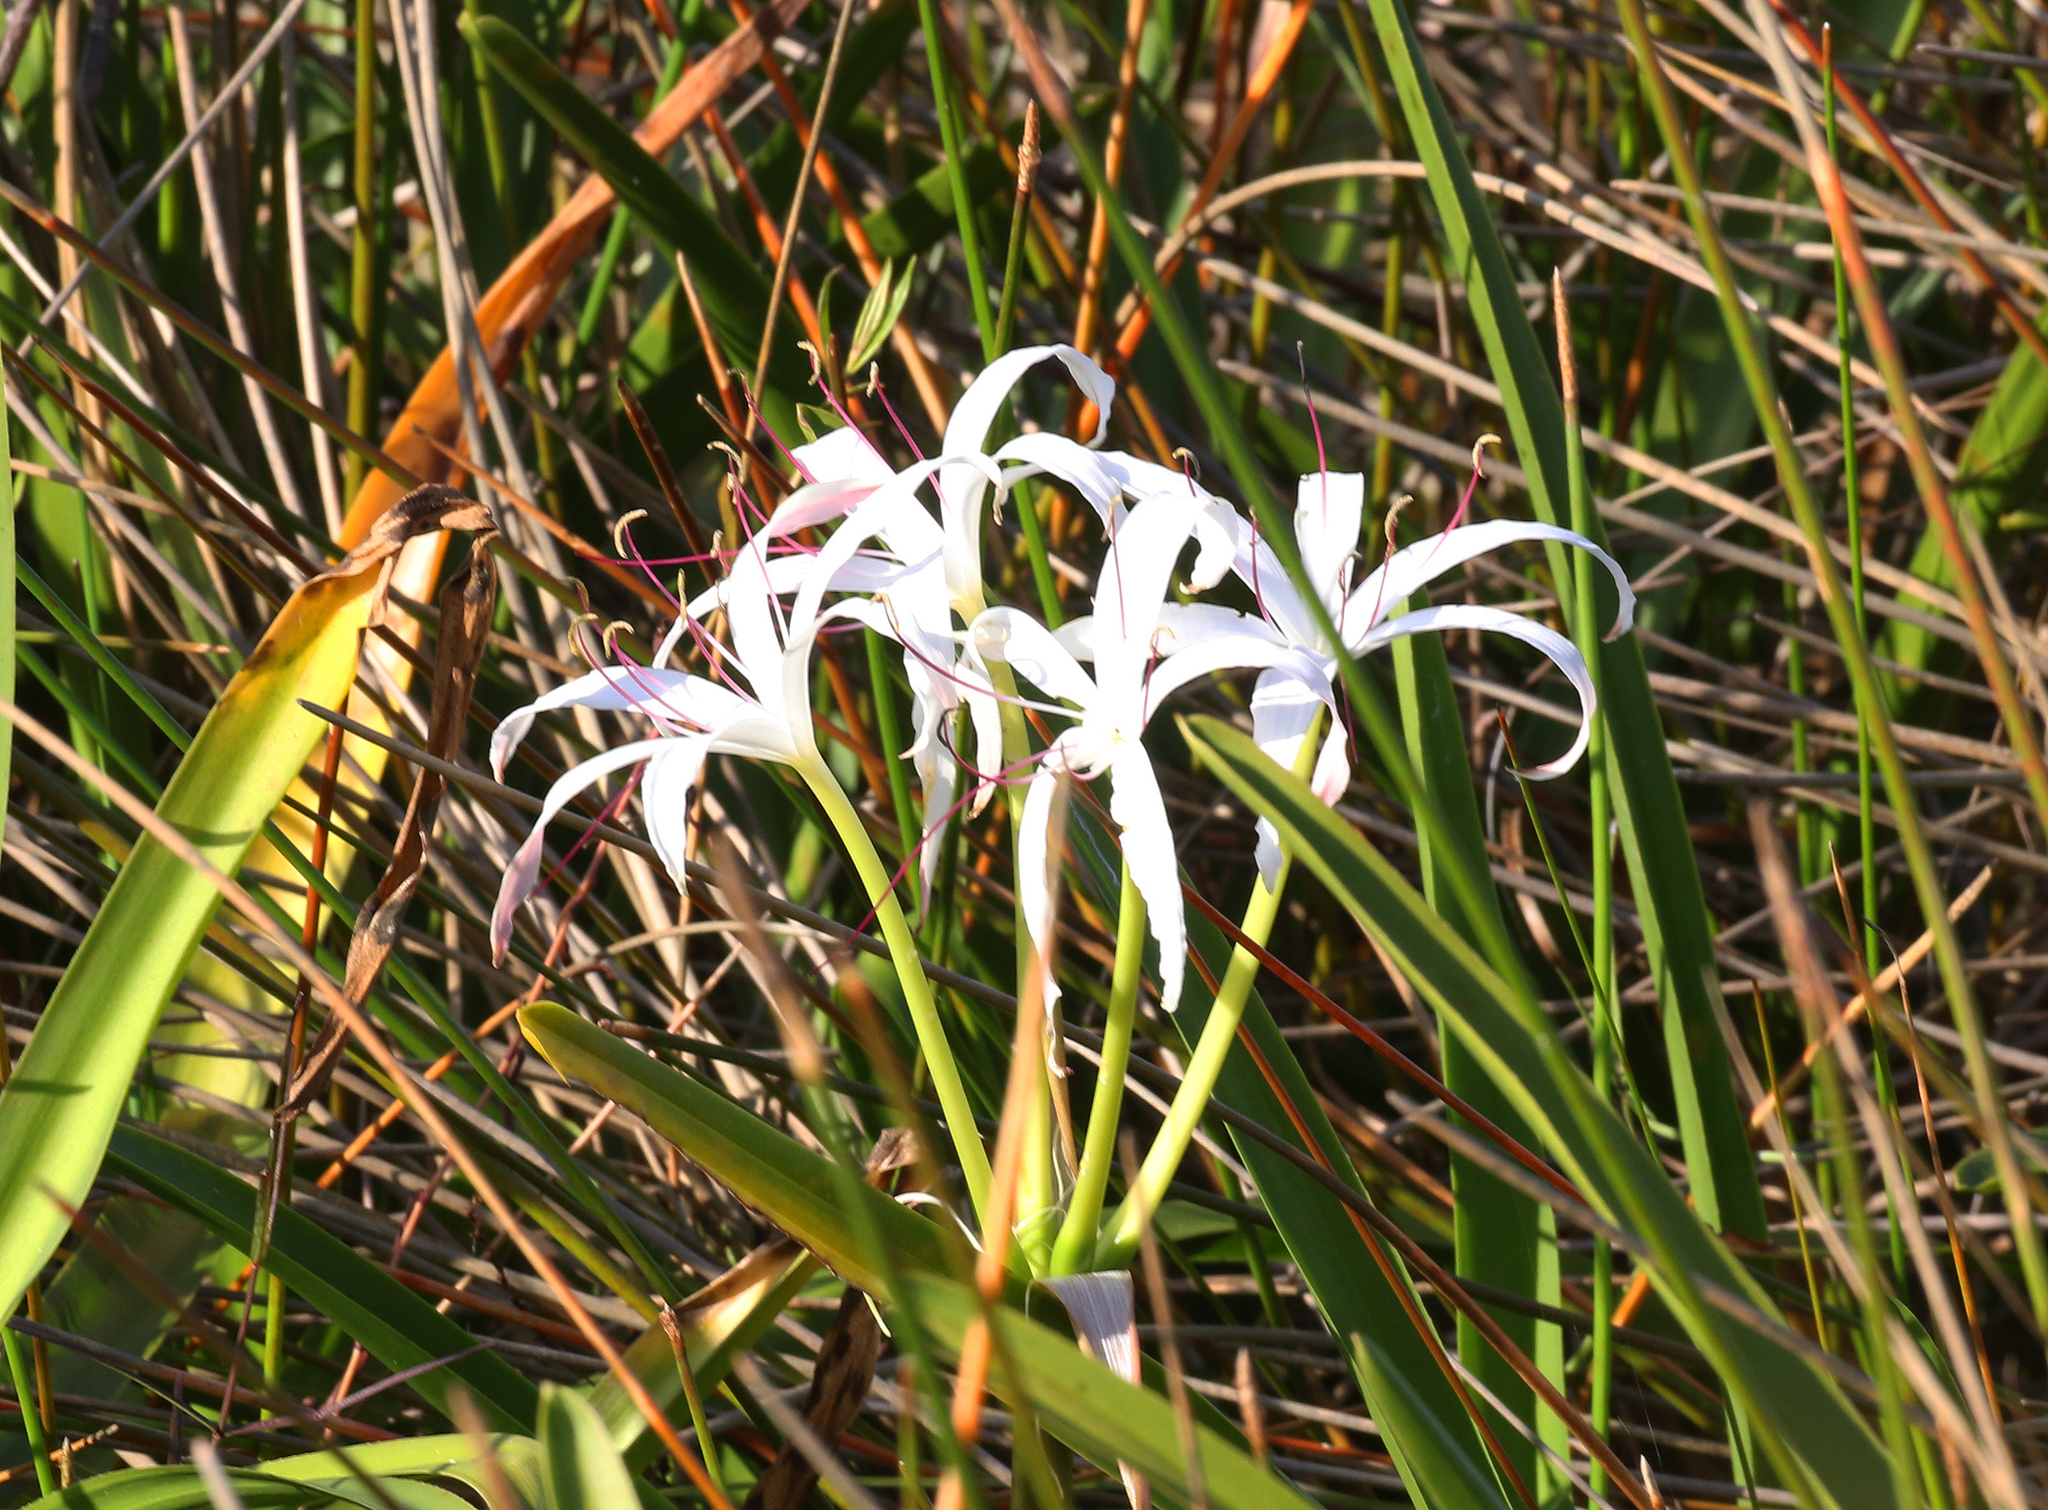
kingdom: Plantae
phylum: Tracheophyta
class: Liliopsida
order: Asparagales
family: Amaryllidaceae
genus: Crinum
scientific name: Crinum americanum
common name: Florida swamp-lily
